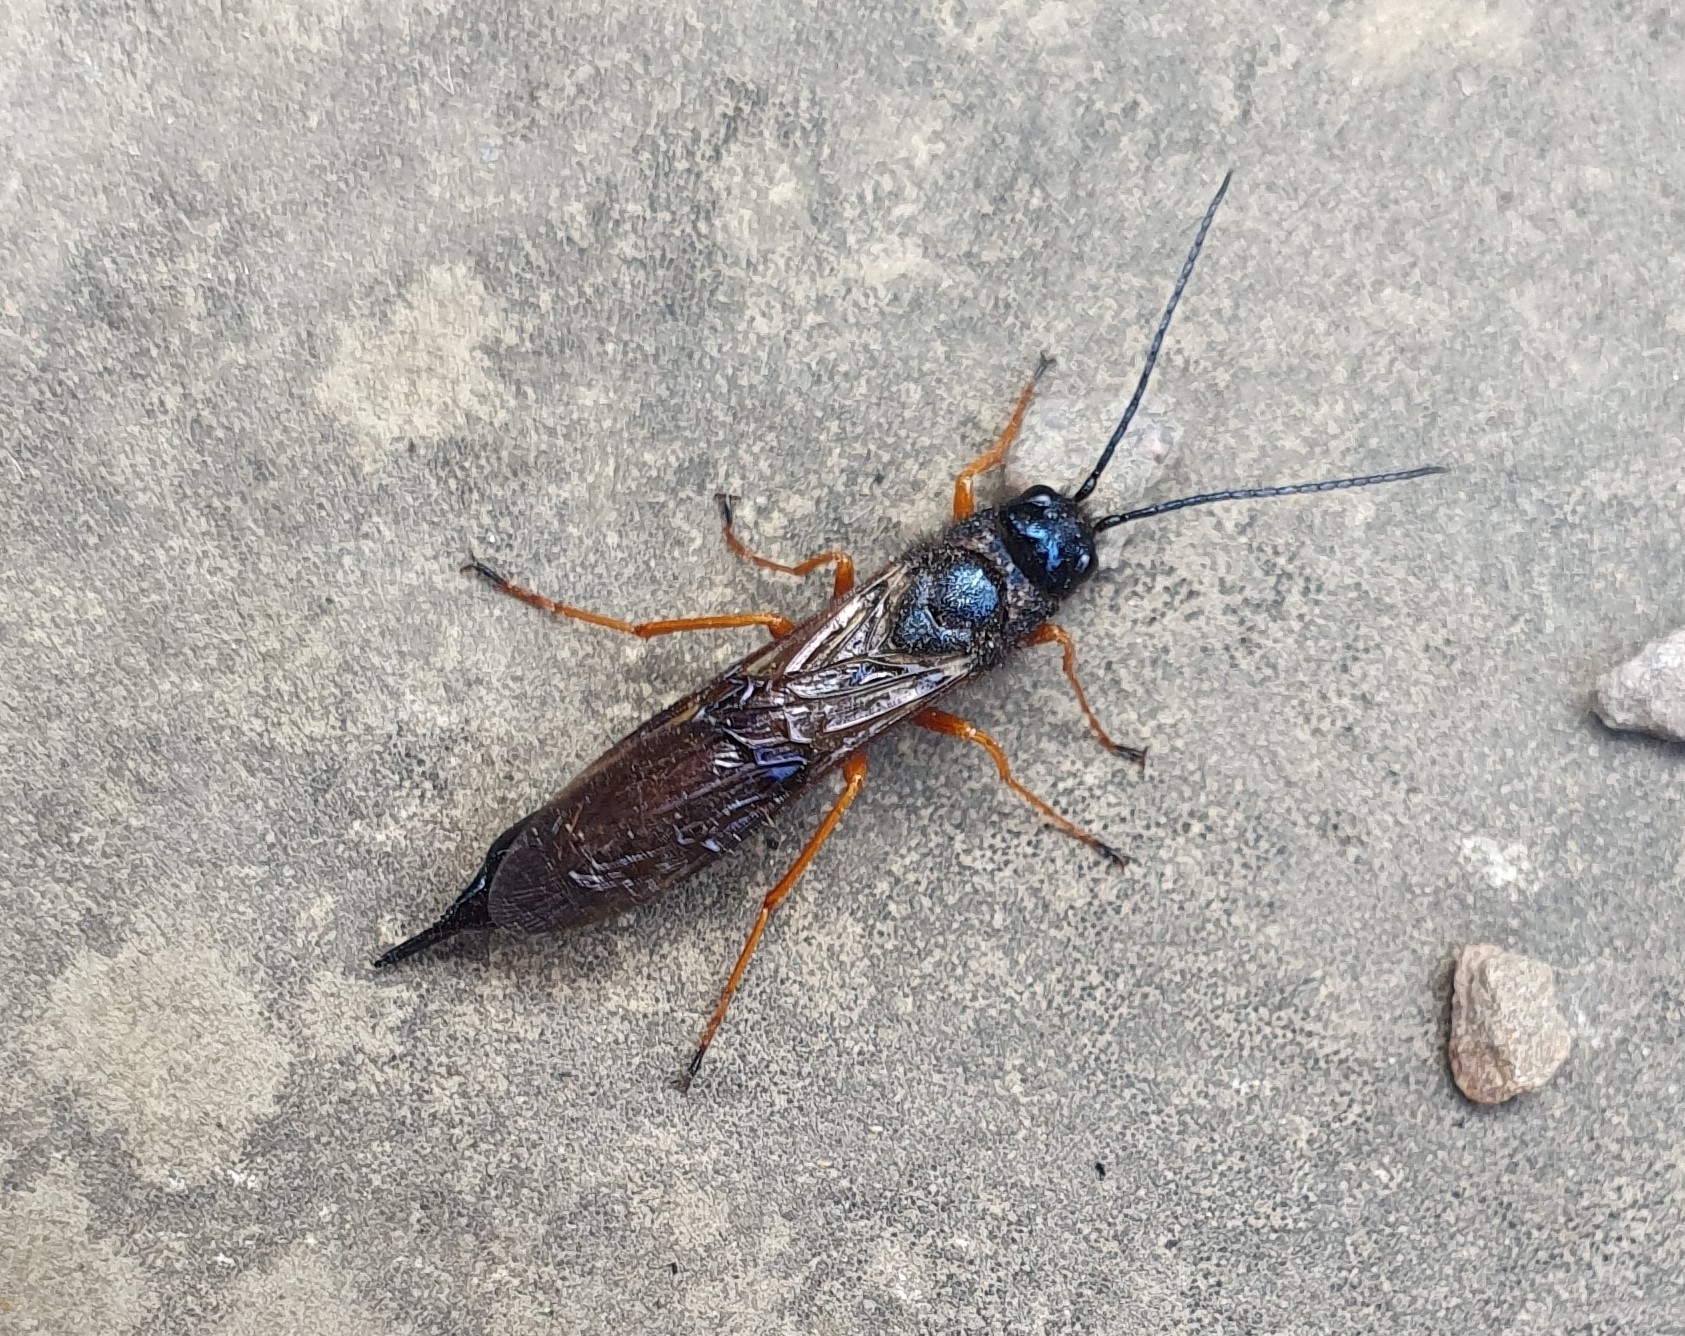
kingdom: Animalia
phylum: Arthropoda
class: Insecta
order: Hymenoptera
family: Siricidae
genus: Sirex
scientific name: Sirex noctilio
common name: Woodwasp
